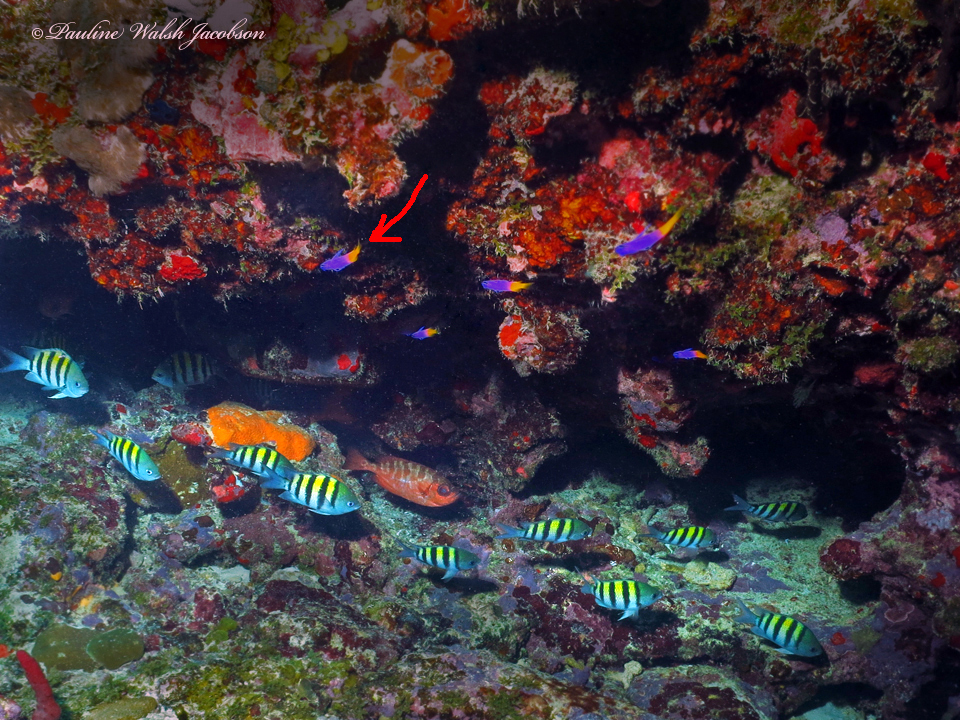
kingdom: Animalia
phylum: Chordata
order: Perciformes
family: Grammatidae
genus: Gramma
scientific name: Gramma loreto
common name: Fairy basslet
